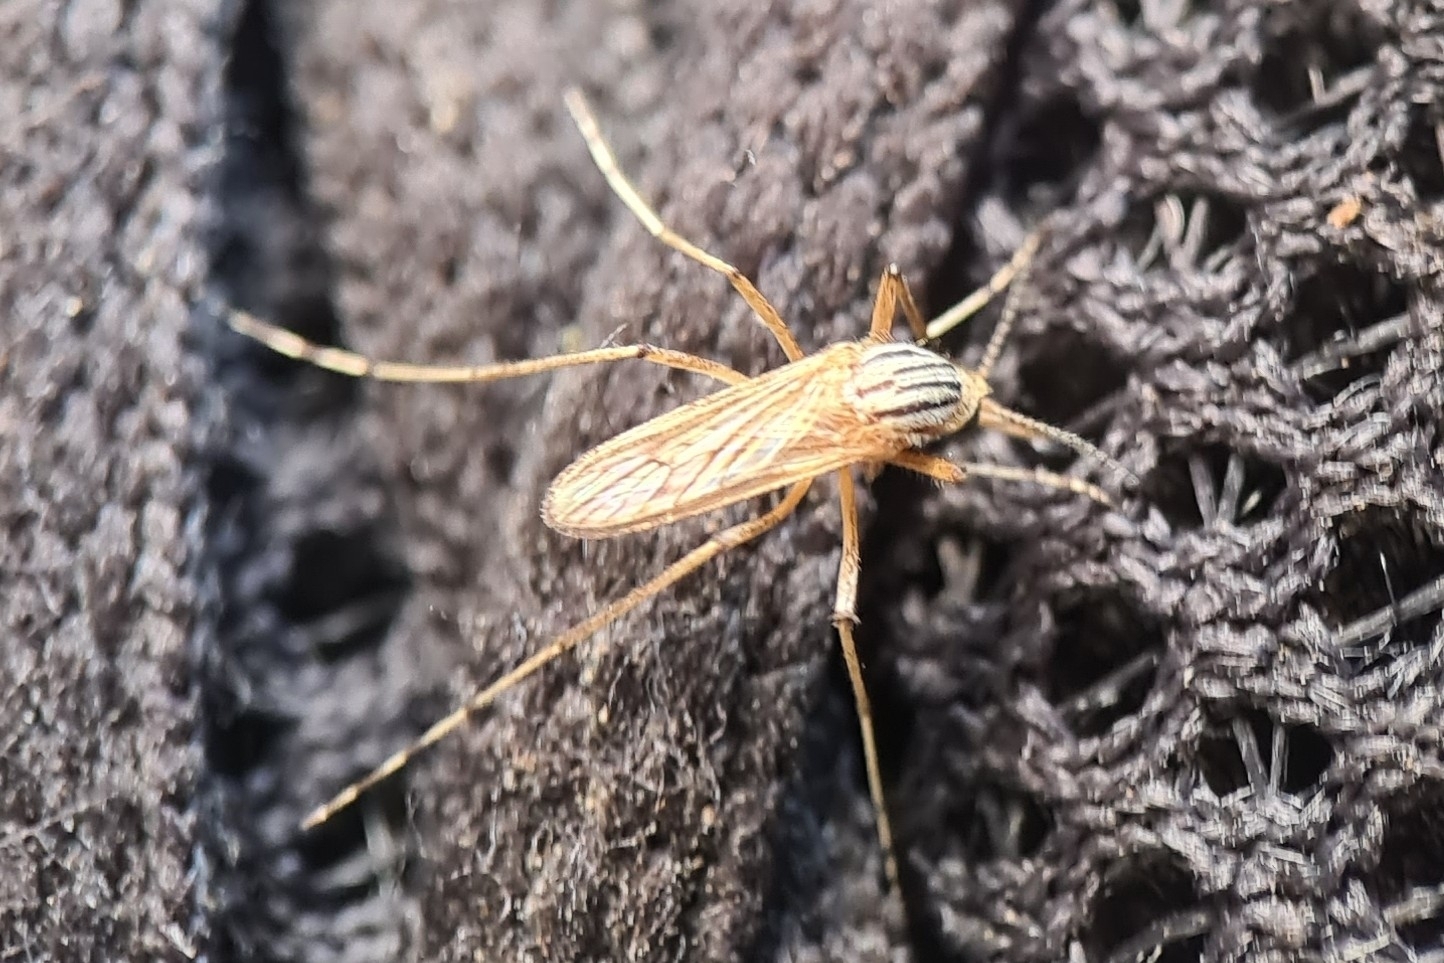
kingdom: Animalia
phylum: Arthropoda
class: Insecta
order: Diptera
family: Culicidae
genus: Aedes
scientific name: Aedes vittiger
